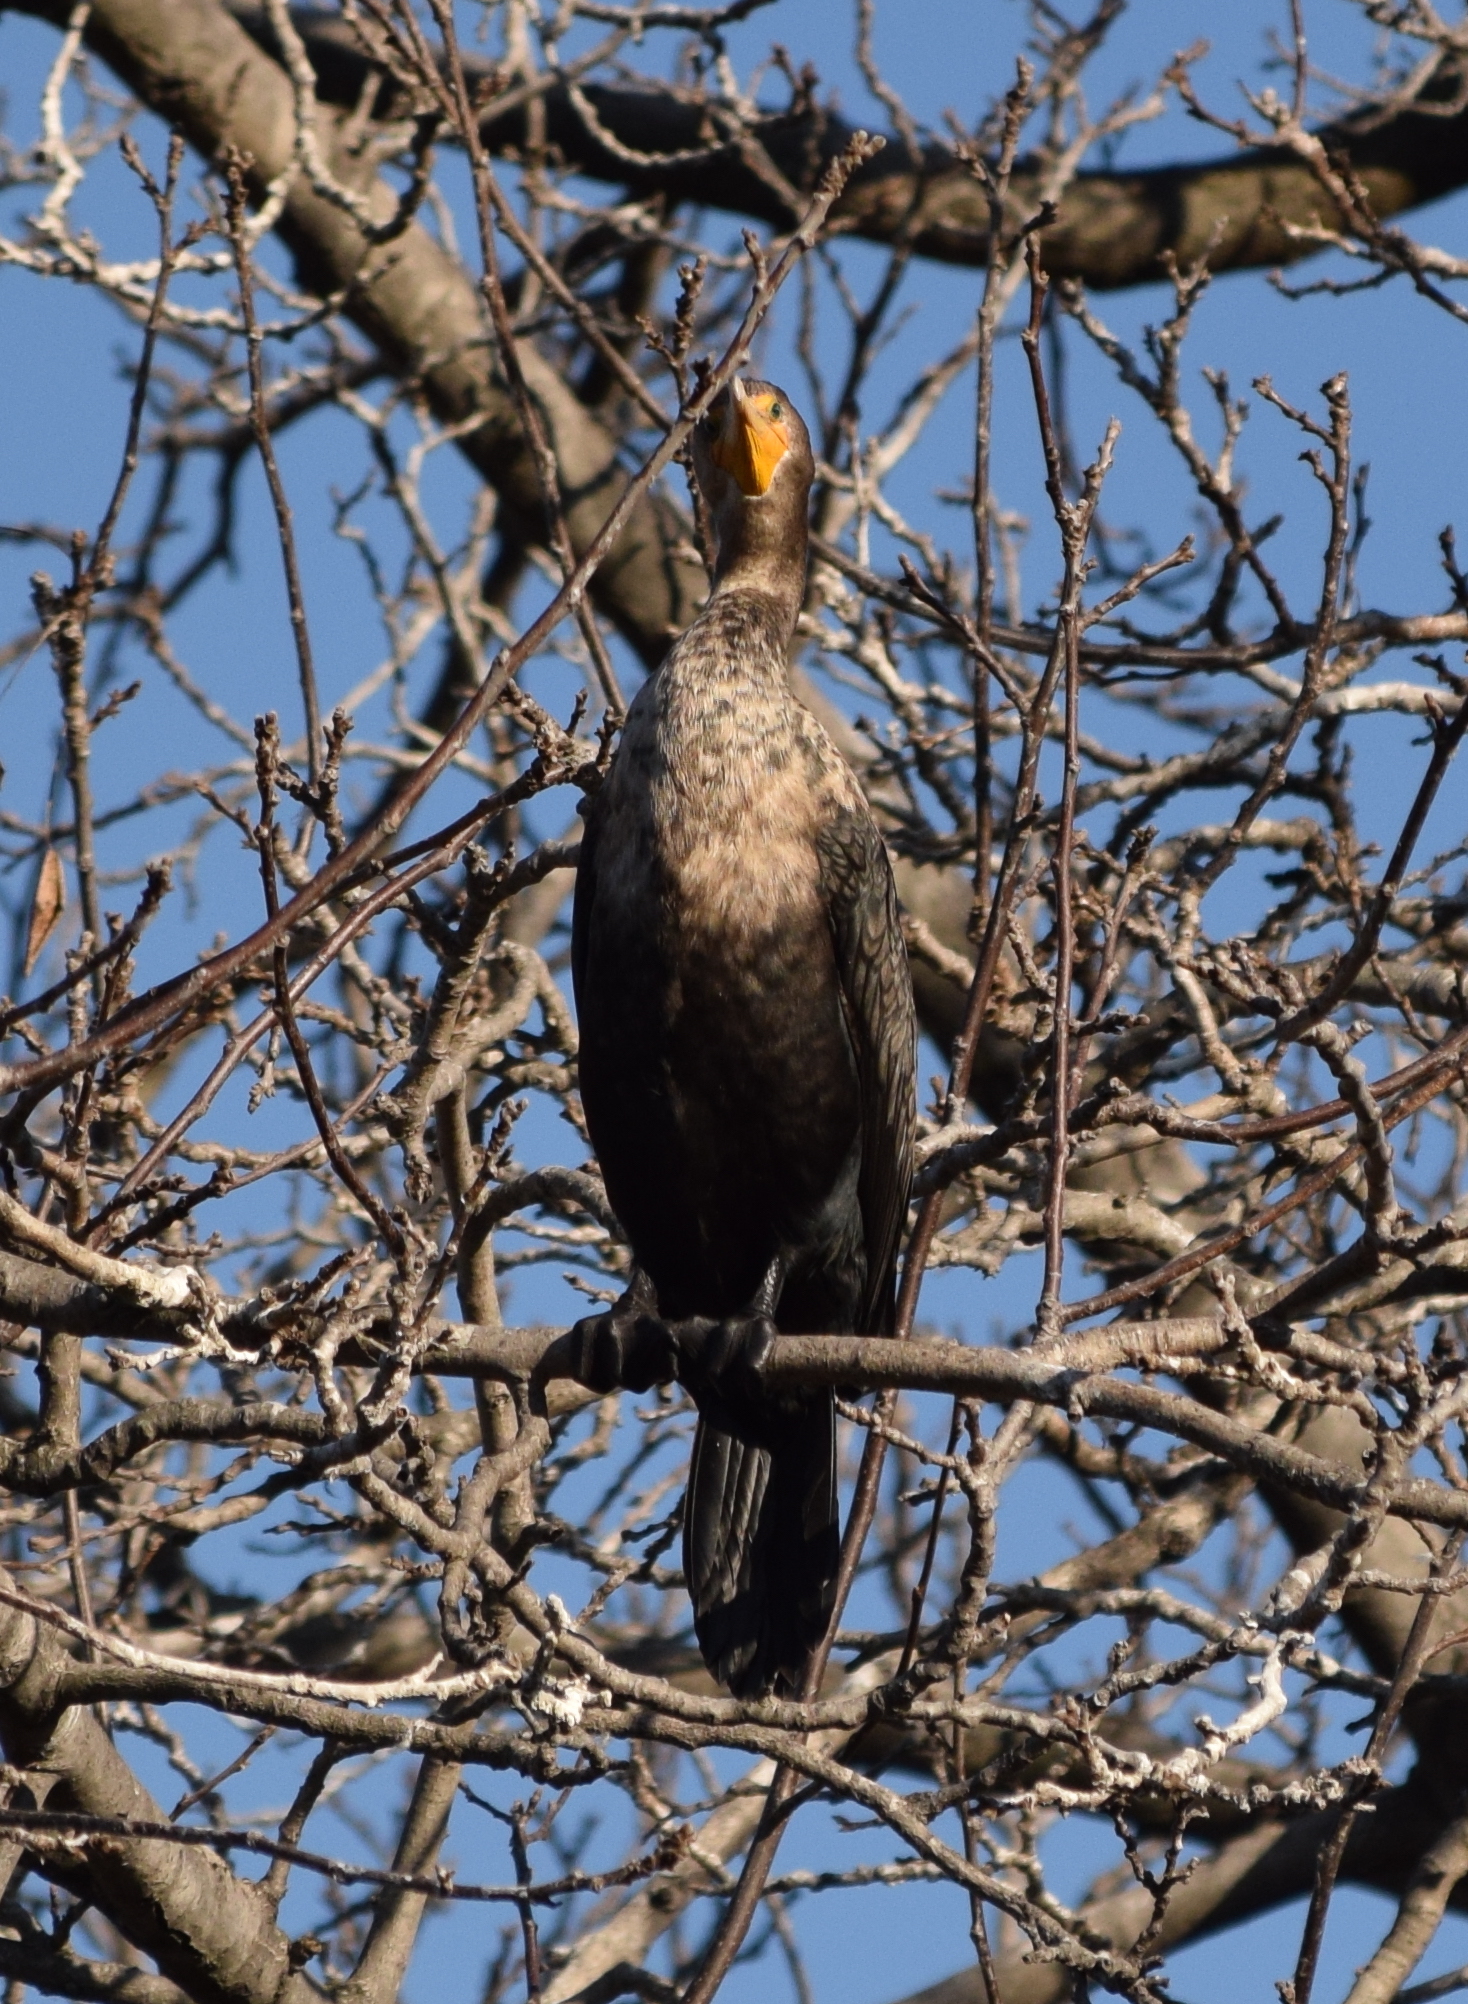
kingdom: Animalia
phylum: Chordata
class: Aves
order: Suliformes
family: Phalacrocoracidae
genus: Phalacrocorax
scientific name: Phalacrocorax auritus
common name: Double-crested cormorant
